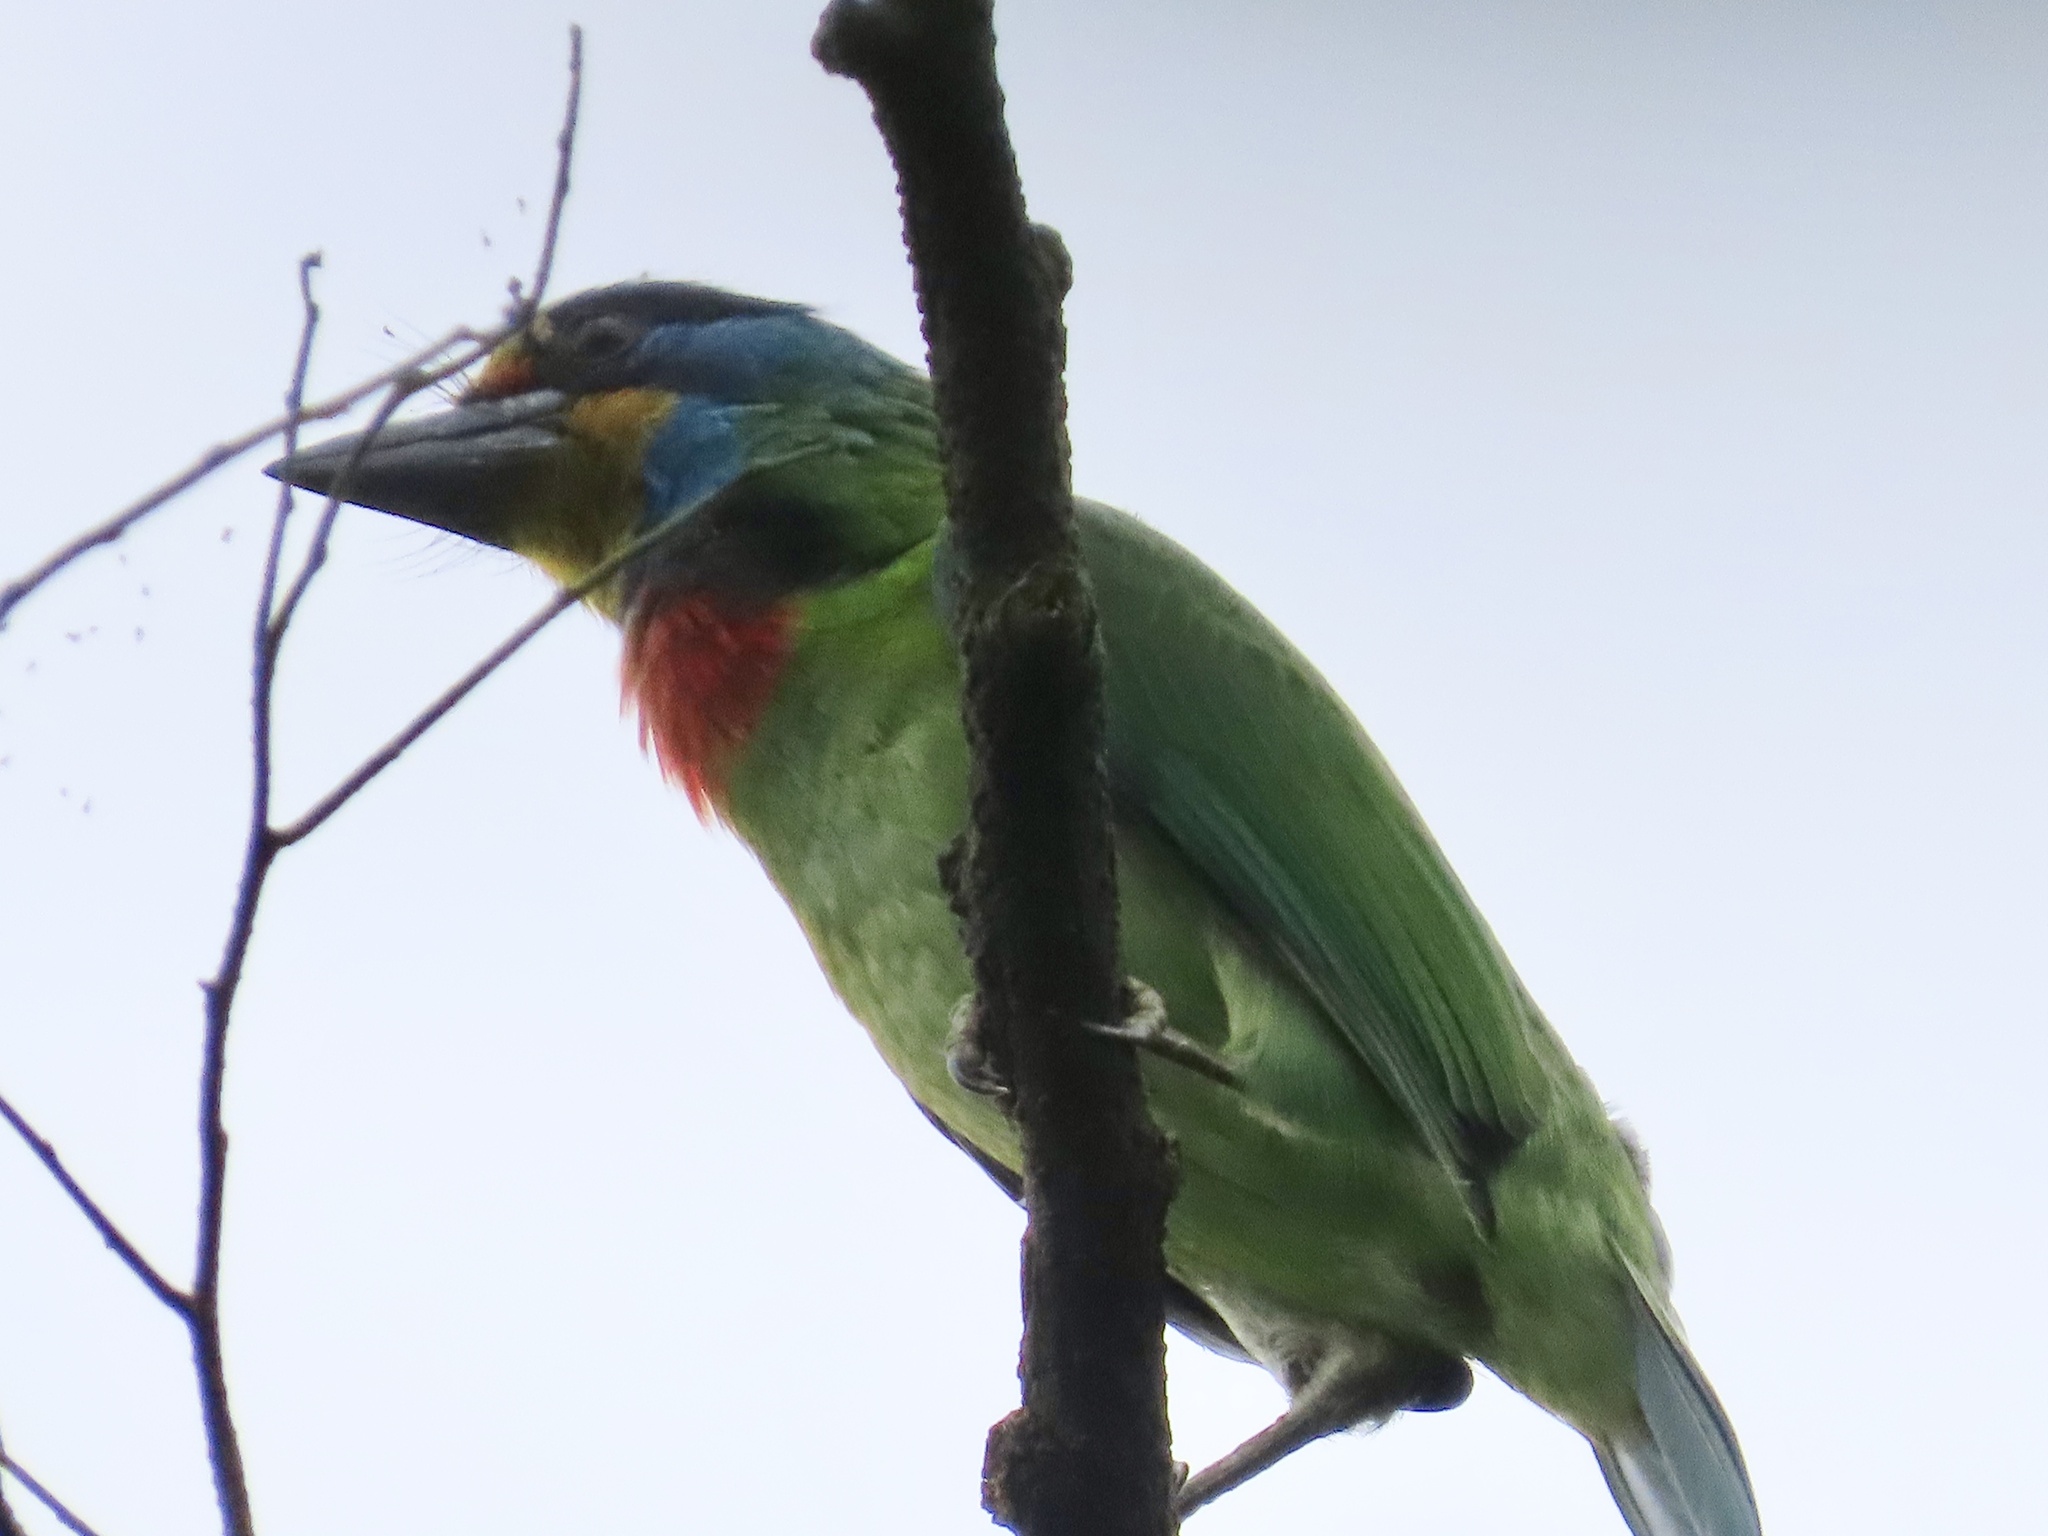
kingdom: Animalia
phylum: Chordata
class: Aves
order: Piciformes
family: Megalaimidae
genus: Psilopogon
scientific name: Psilopogon nuchalis
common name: Taiwan barbet
